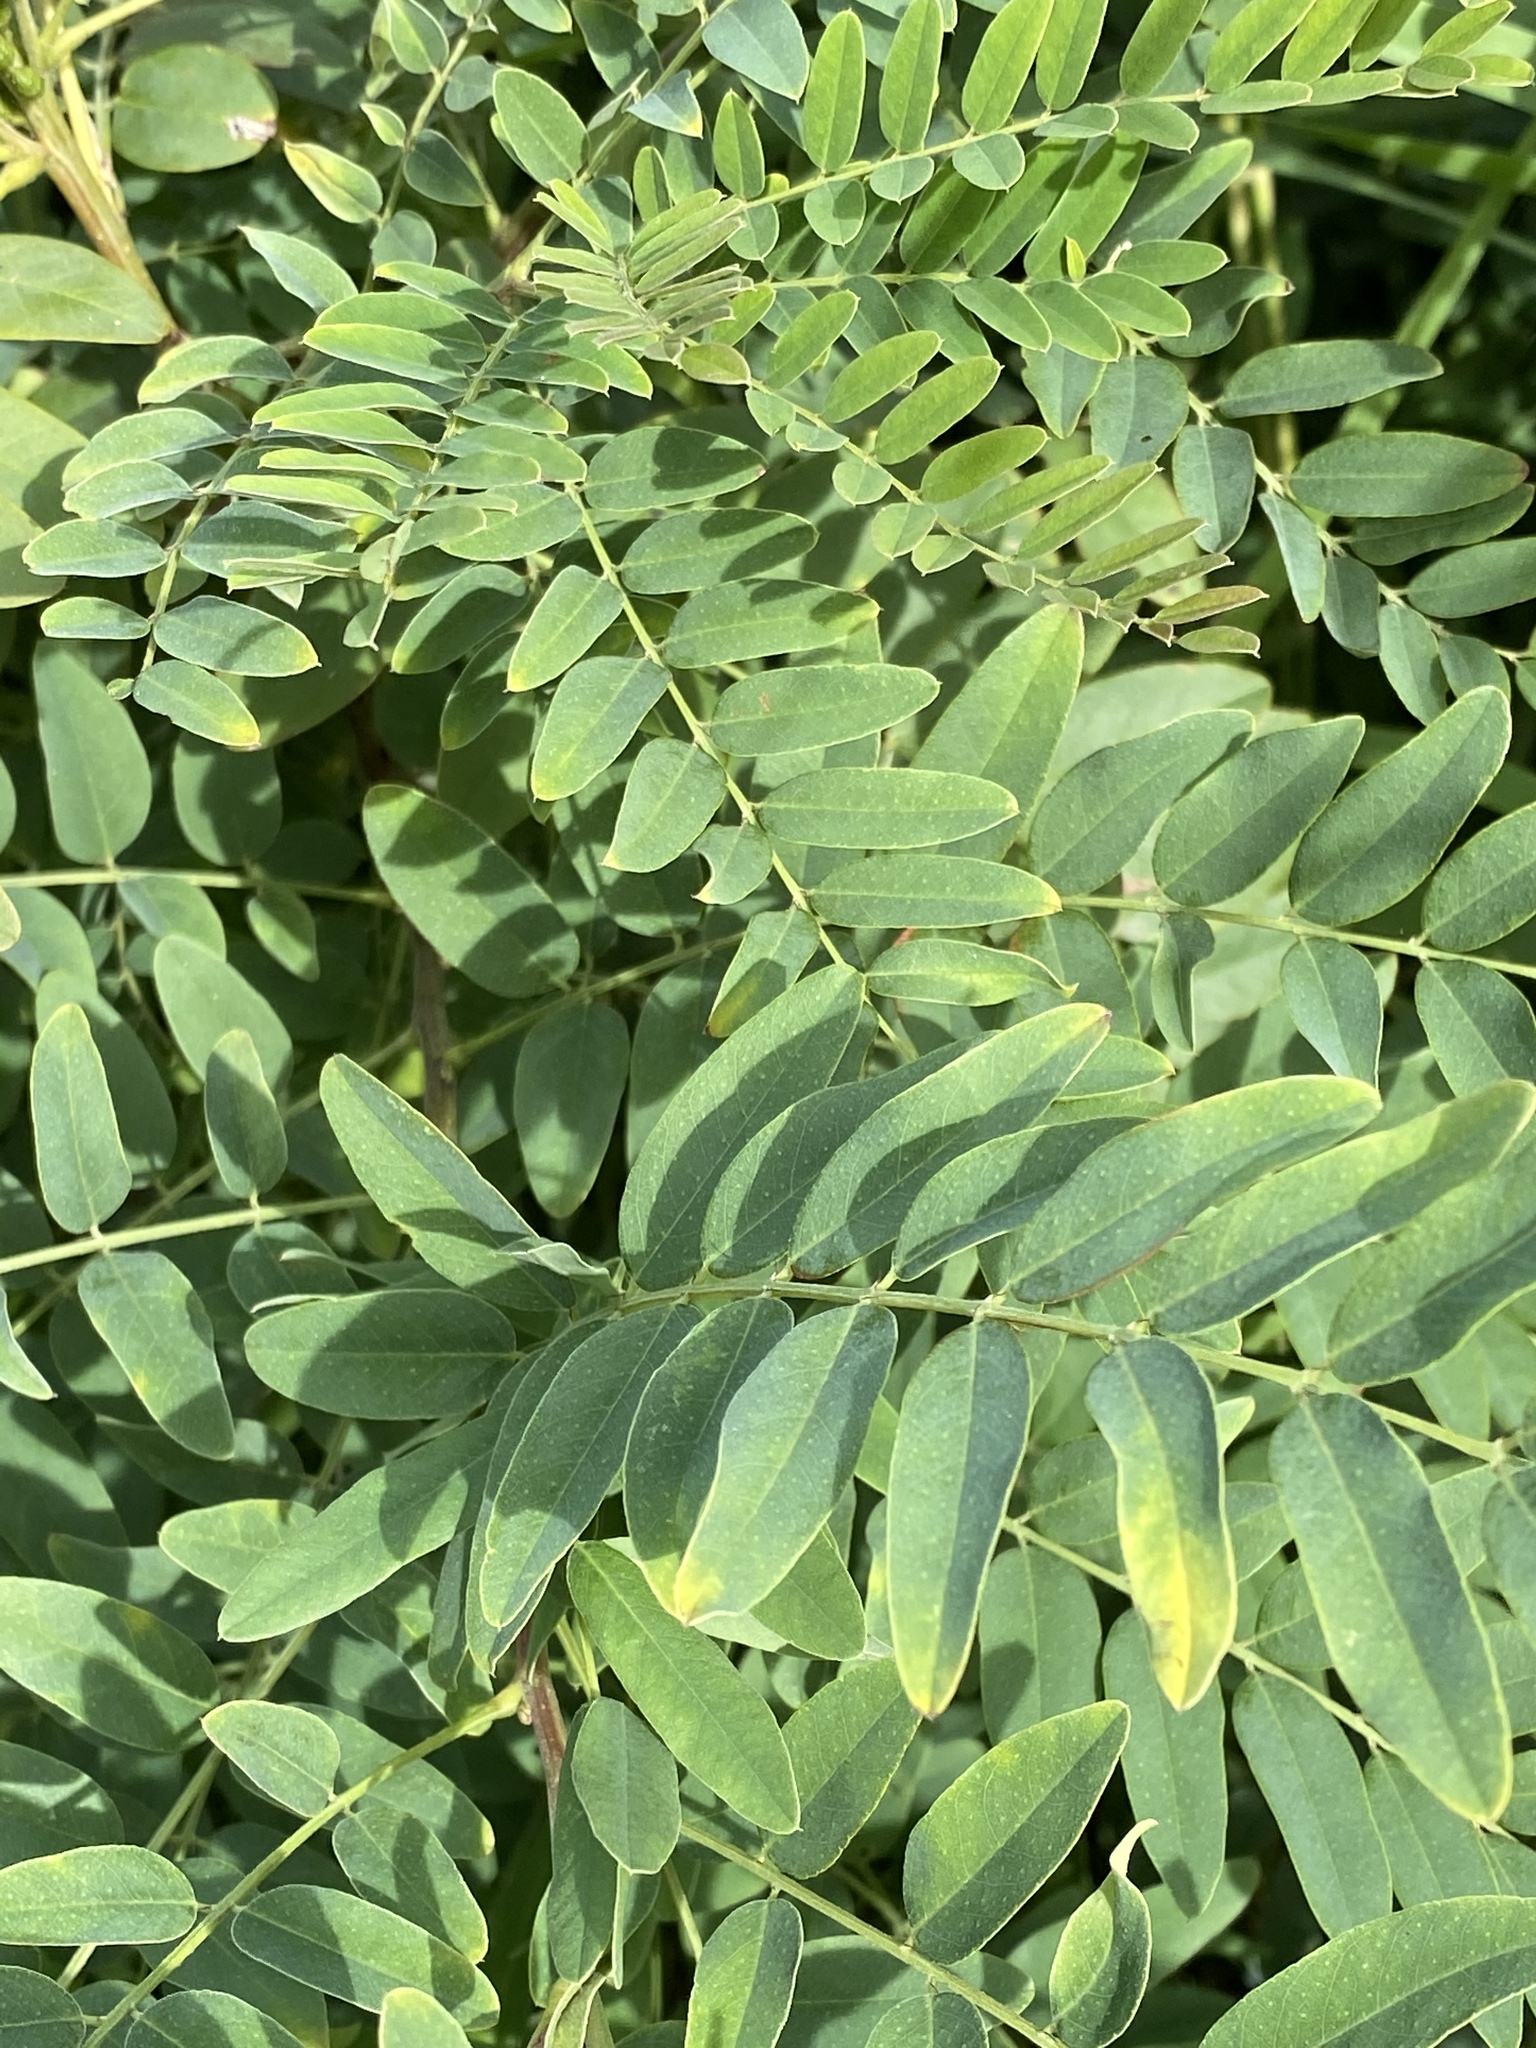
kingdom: Plantae
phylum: Tracheophyta
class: Magnoliopsida
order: Fabales
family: Fabaceae
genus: Amorpha
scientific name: Amorpha fruticosa
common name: False indigo
